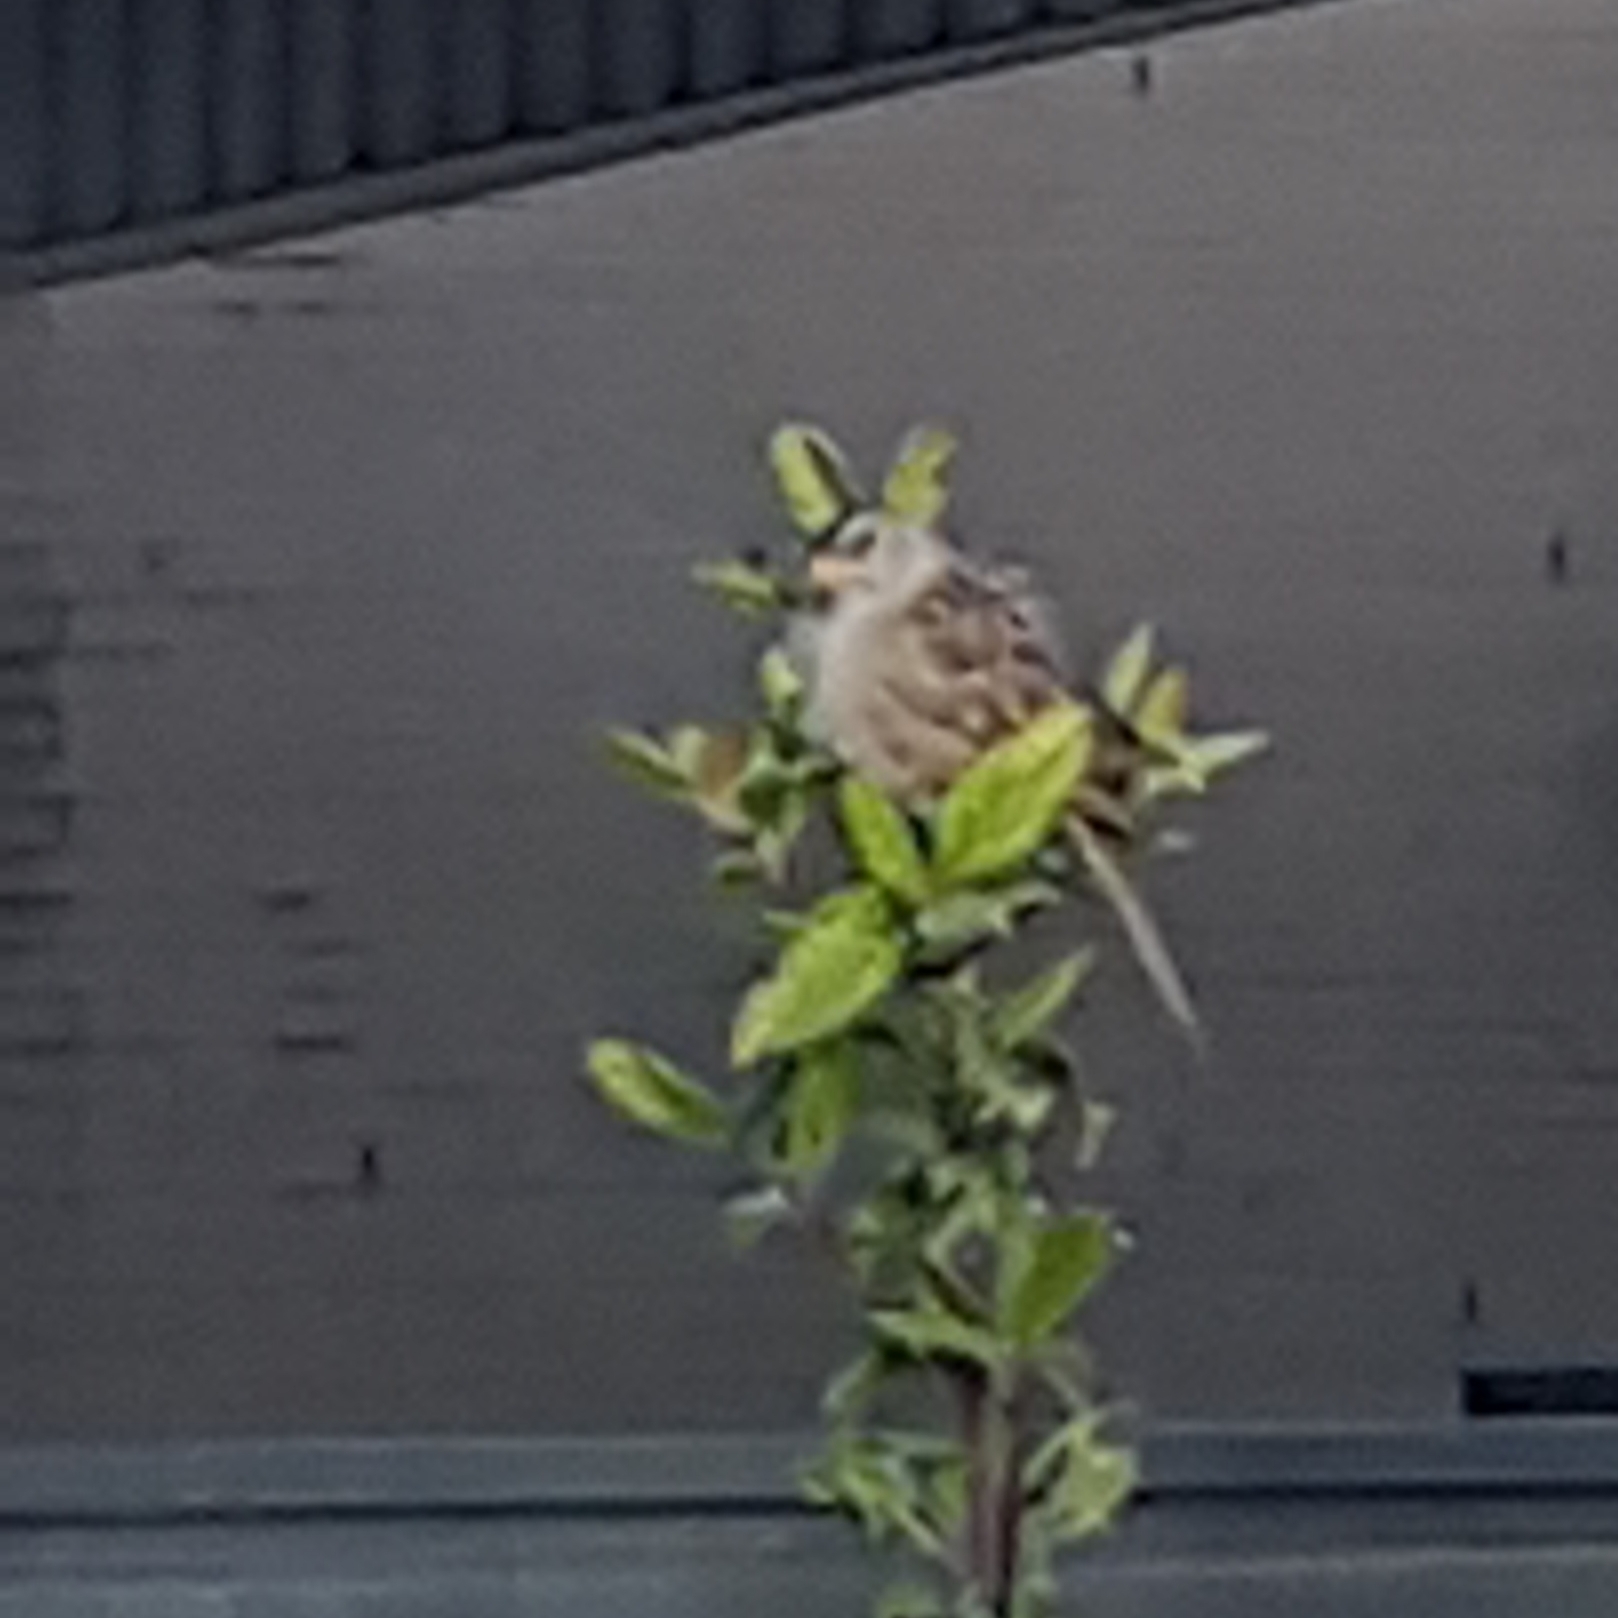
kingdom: Animalia
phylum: Chordata
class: Aves
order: Passeriformes
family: Passerellidae
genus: Zonotrichia
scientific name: Zonotrichia leucophrys
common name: White-crowned sparrow
